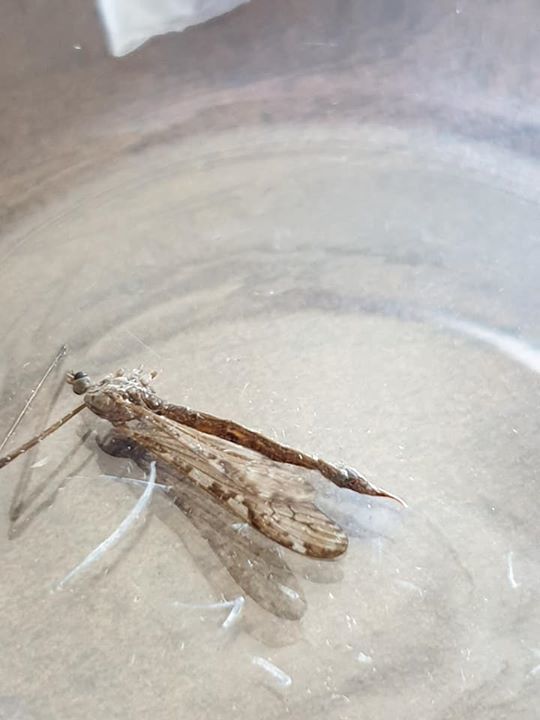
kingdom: Animalia
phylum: Arthropoda
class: Insecta
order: Diptera
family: Limoniidae
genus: Paralimnophila
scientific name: Paralimnophila skusei
